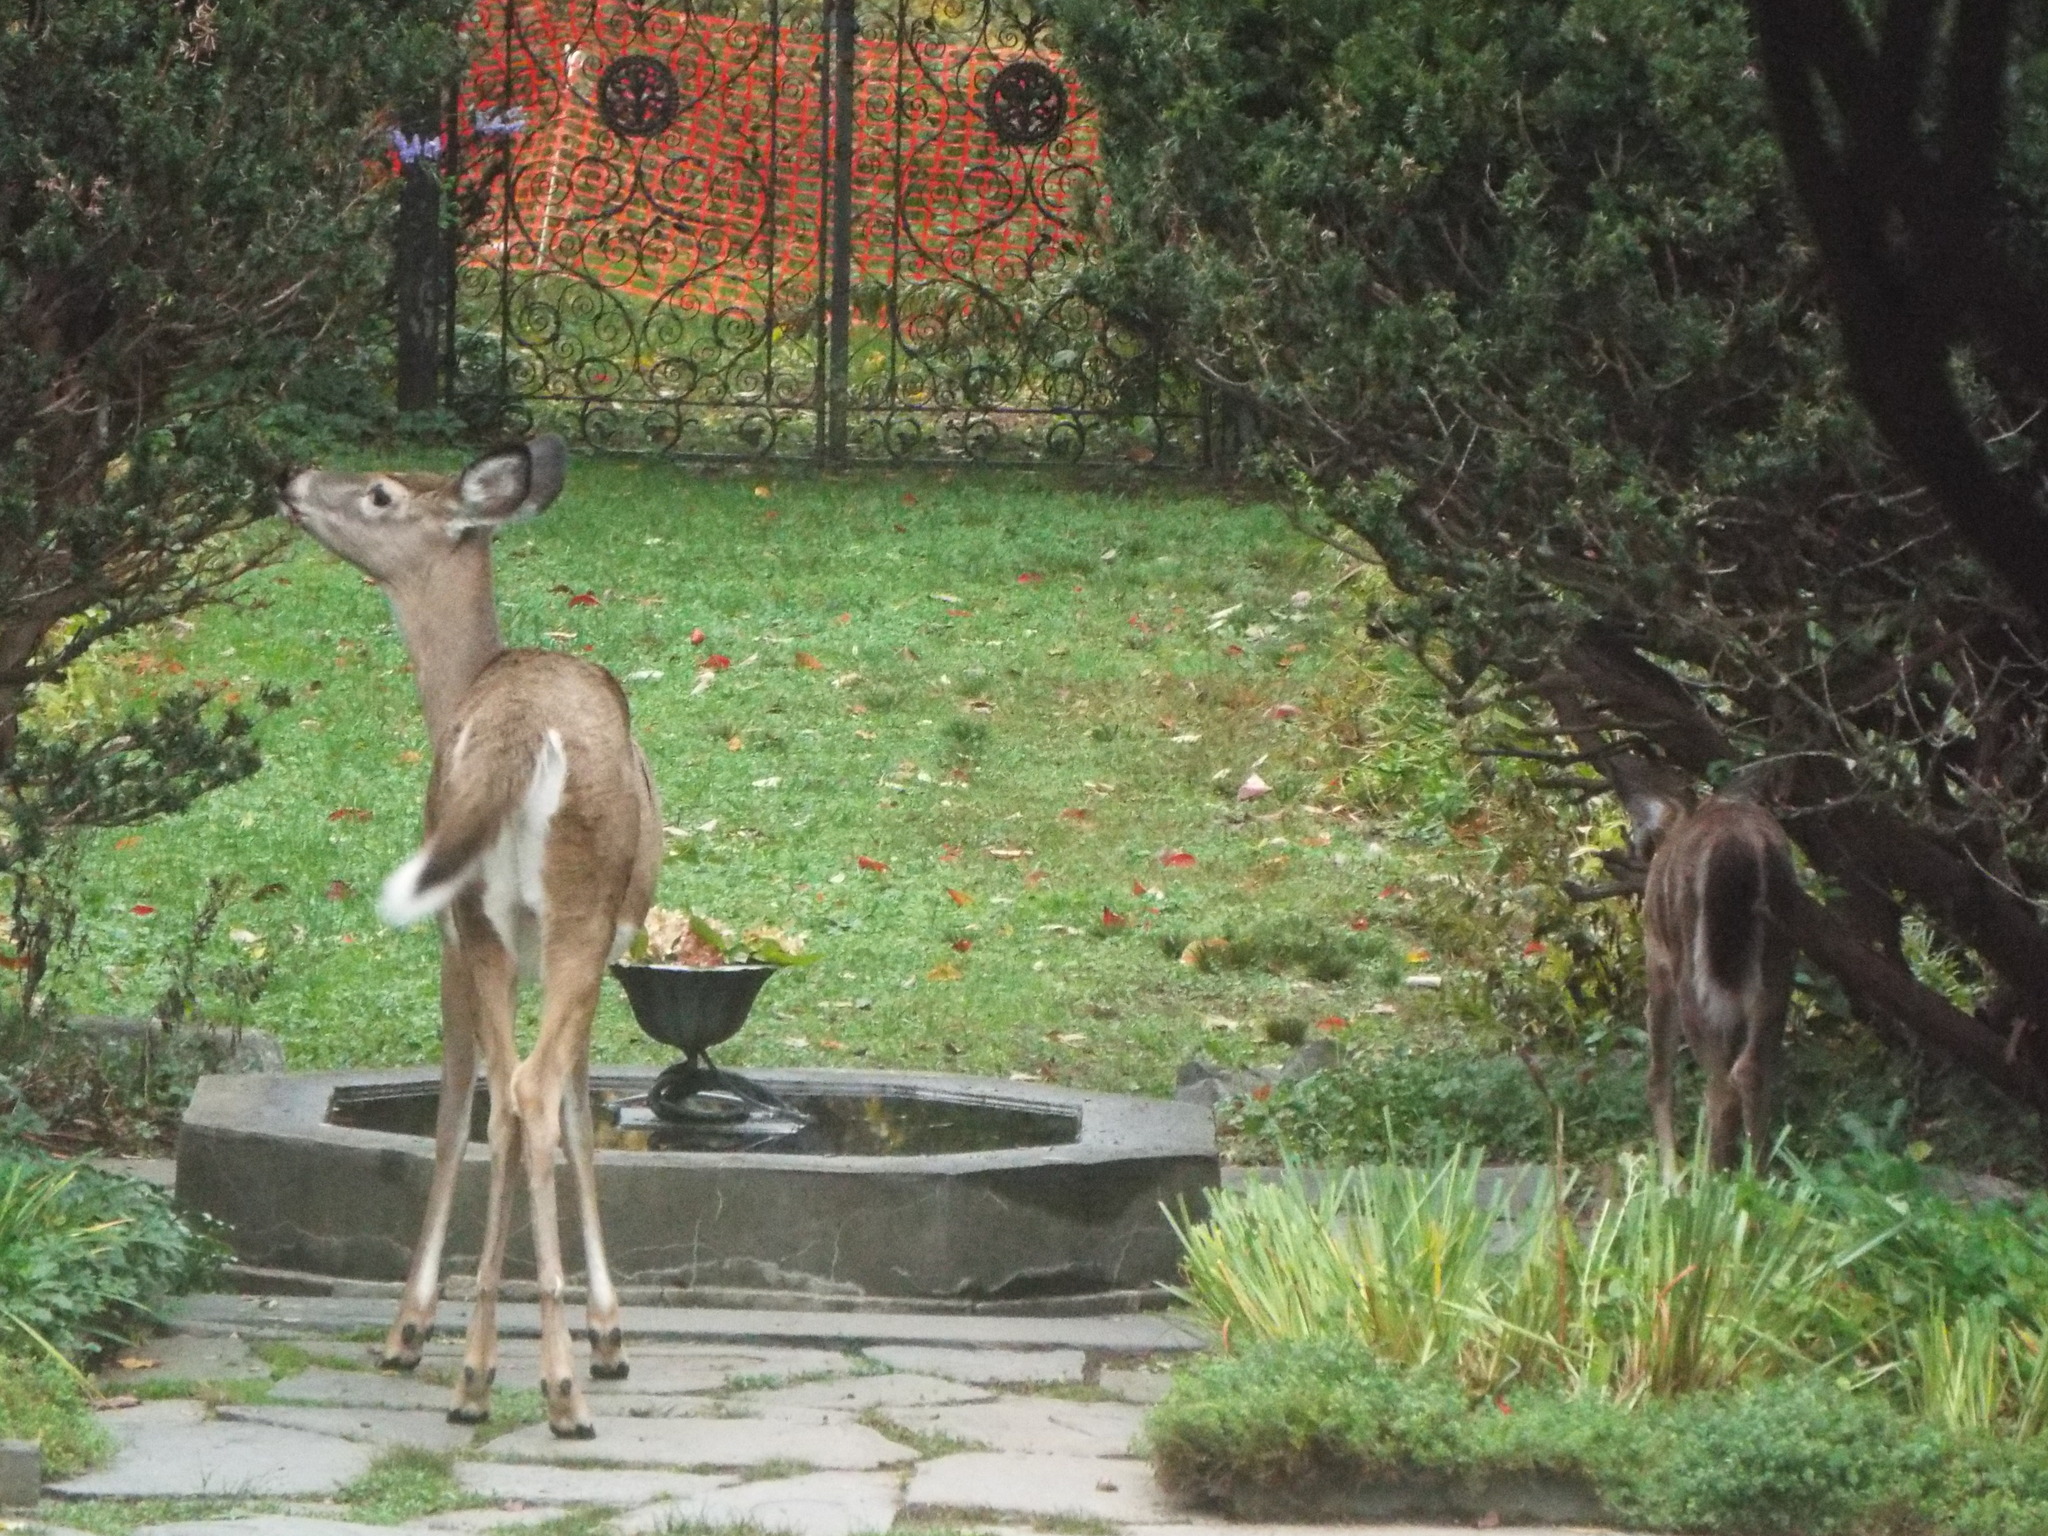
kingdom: Animalia
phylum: Chordata
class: Mammalia
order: Artiodactyla
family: Cervidae
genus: Odocoileus
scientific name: Odocoileus virginianus
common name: White-tailed deer
